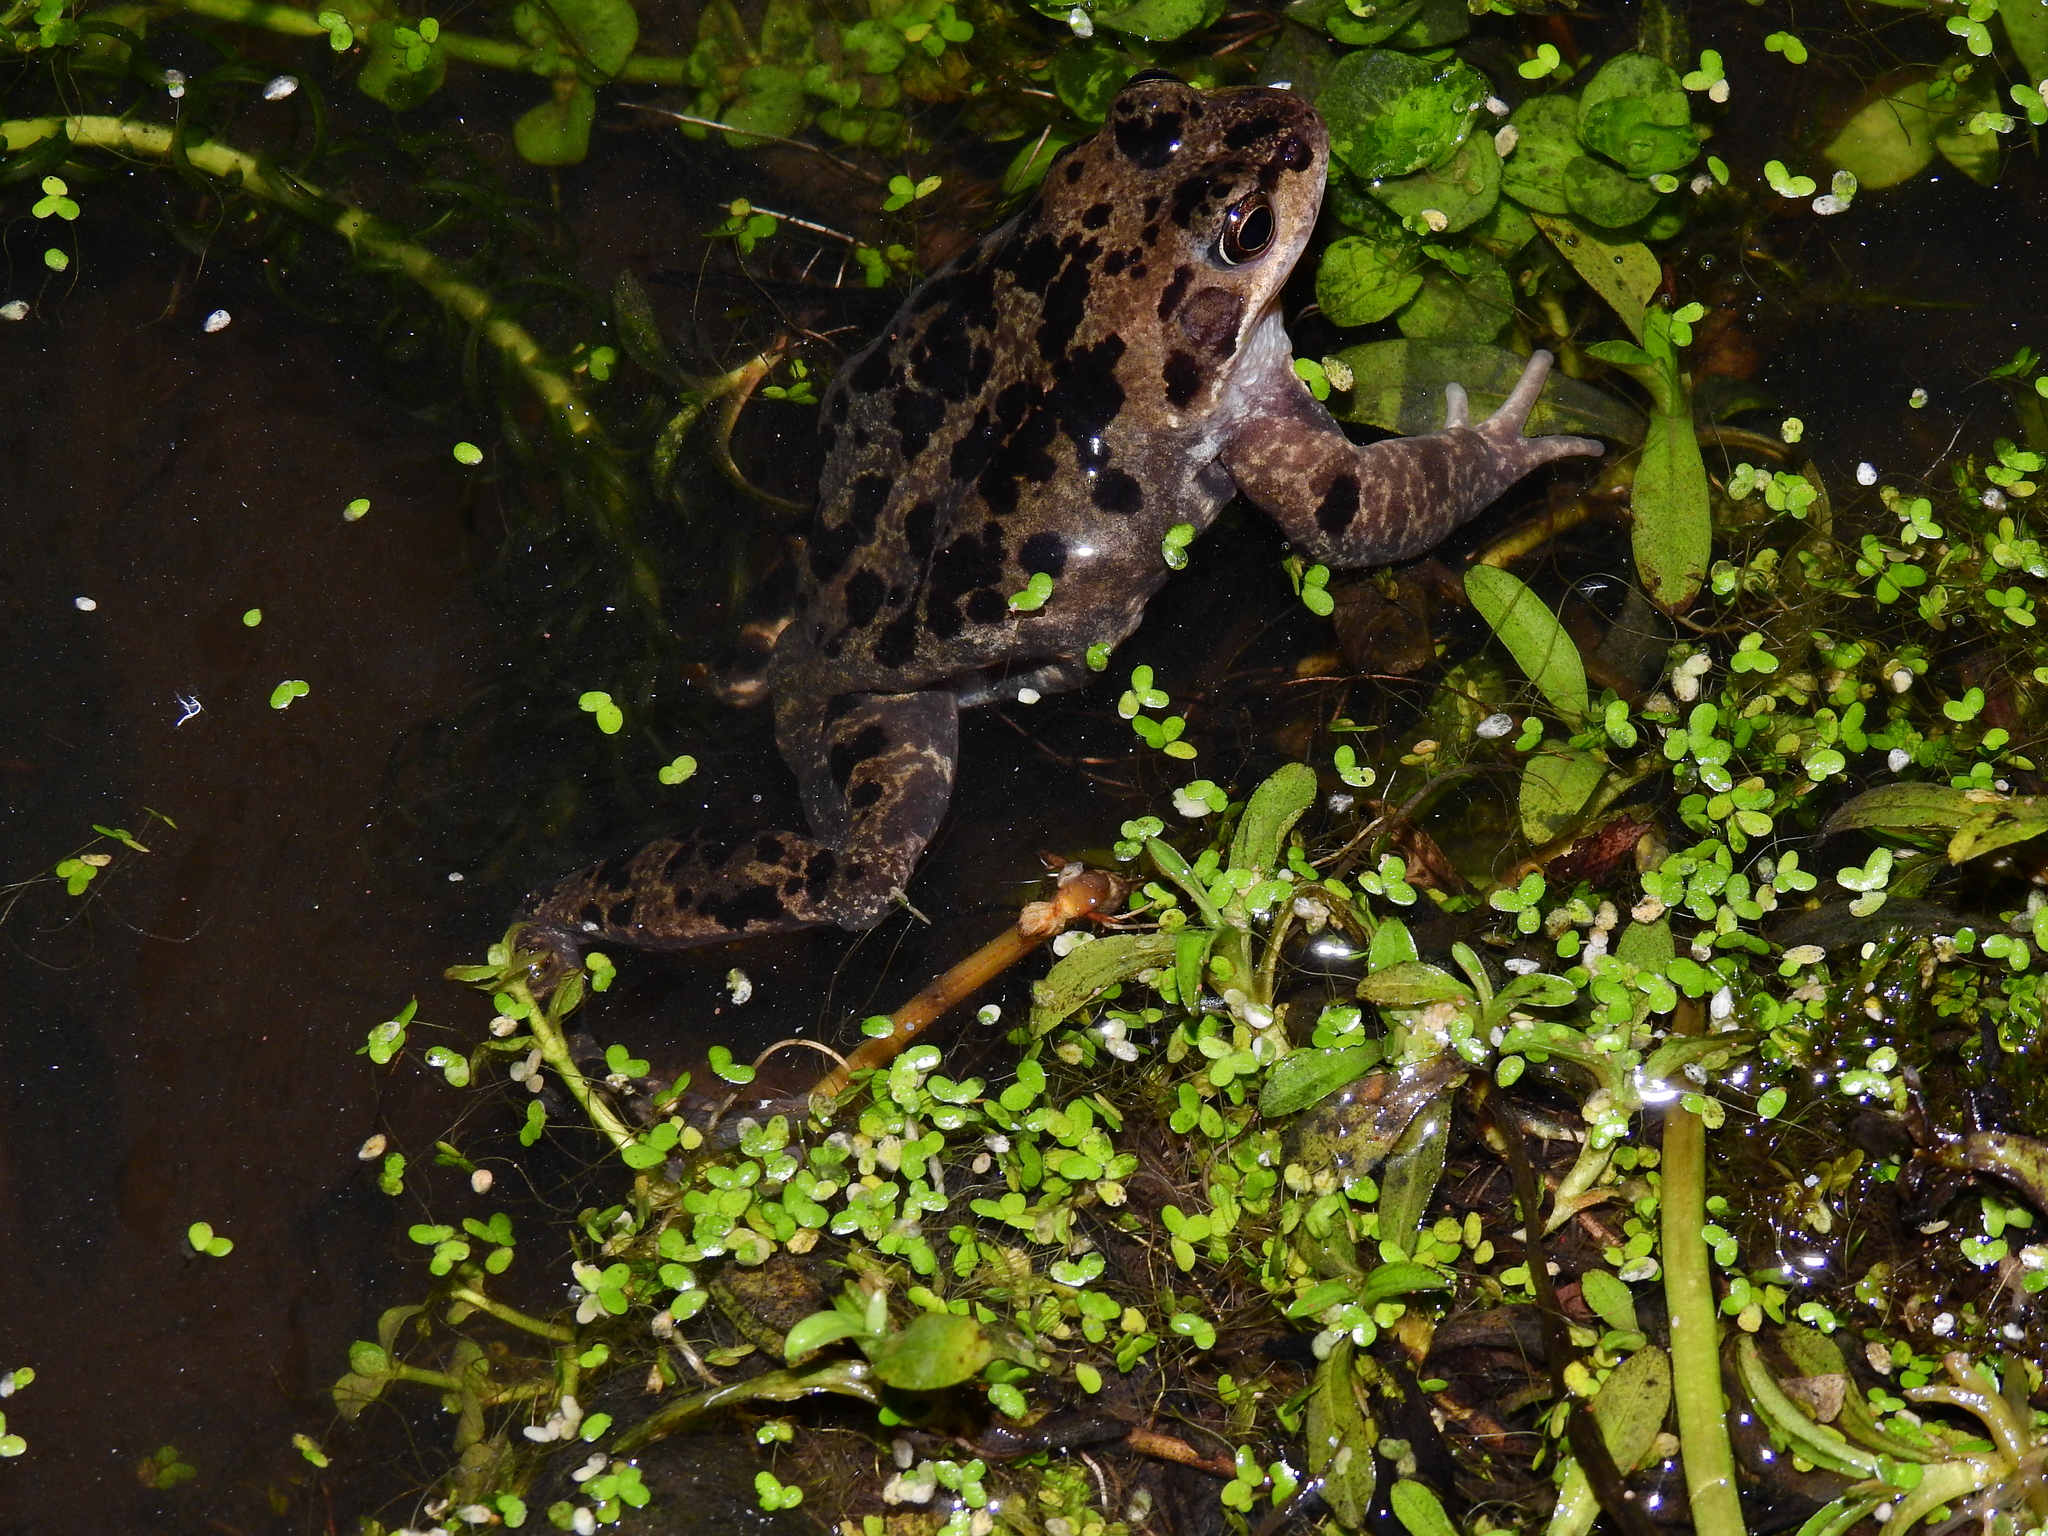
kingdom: Animalia
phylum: Chordata
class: Amphibia
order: Anura
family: Ranidae
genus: Rana
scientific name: Rana temporaria
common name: Common frog
